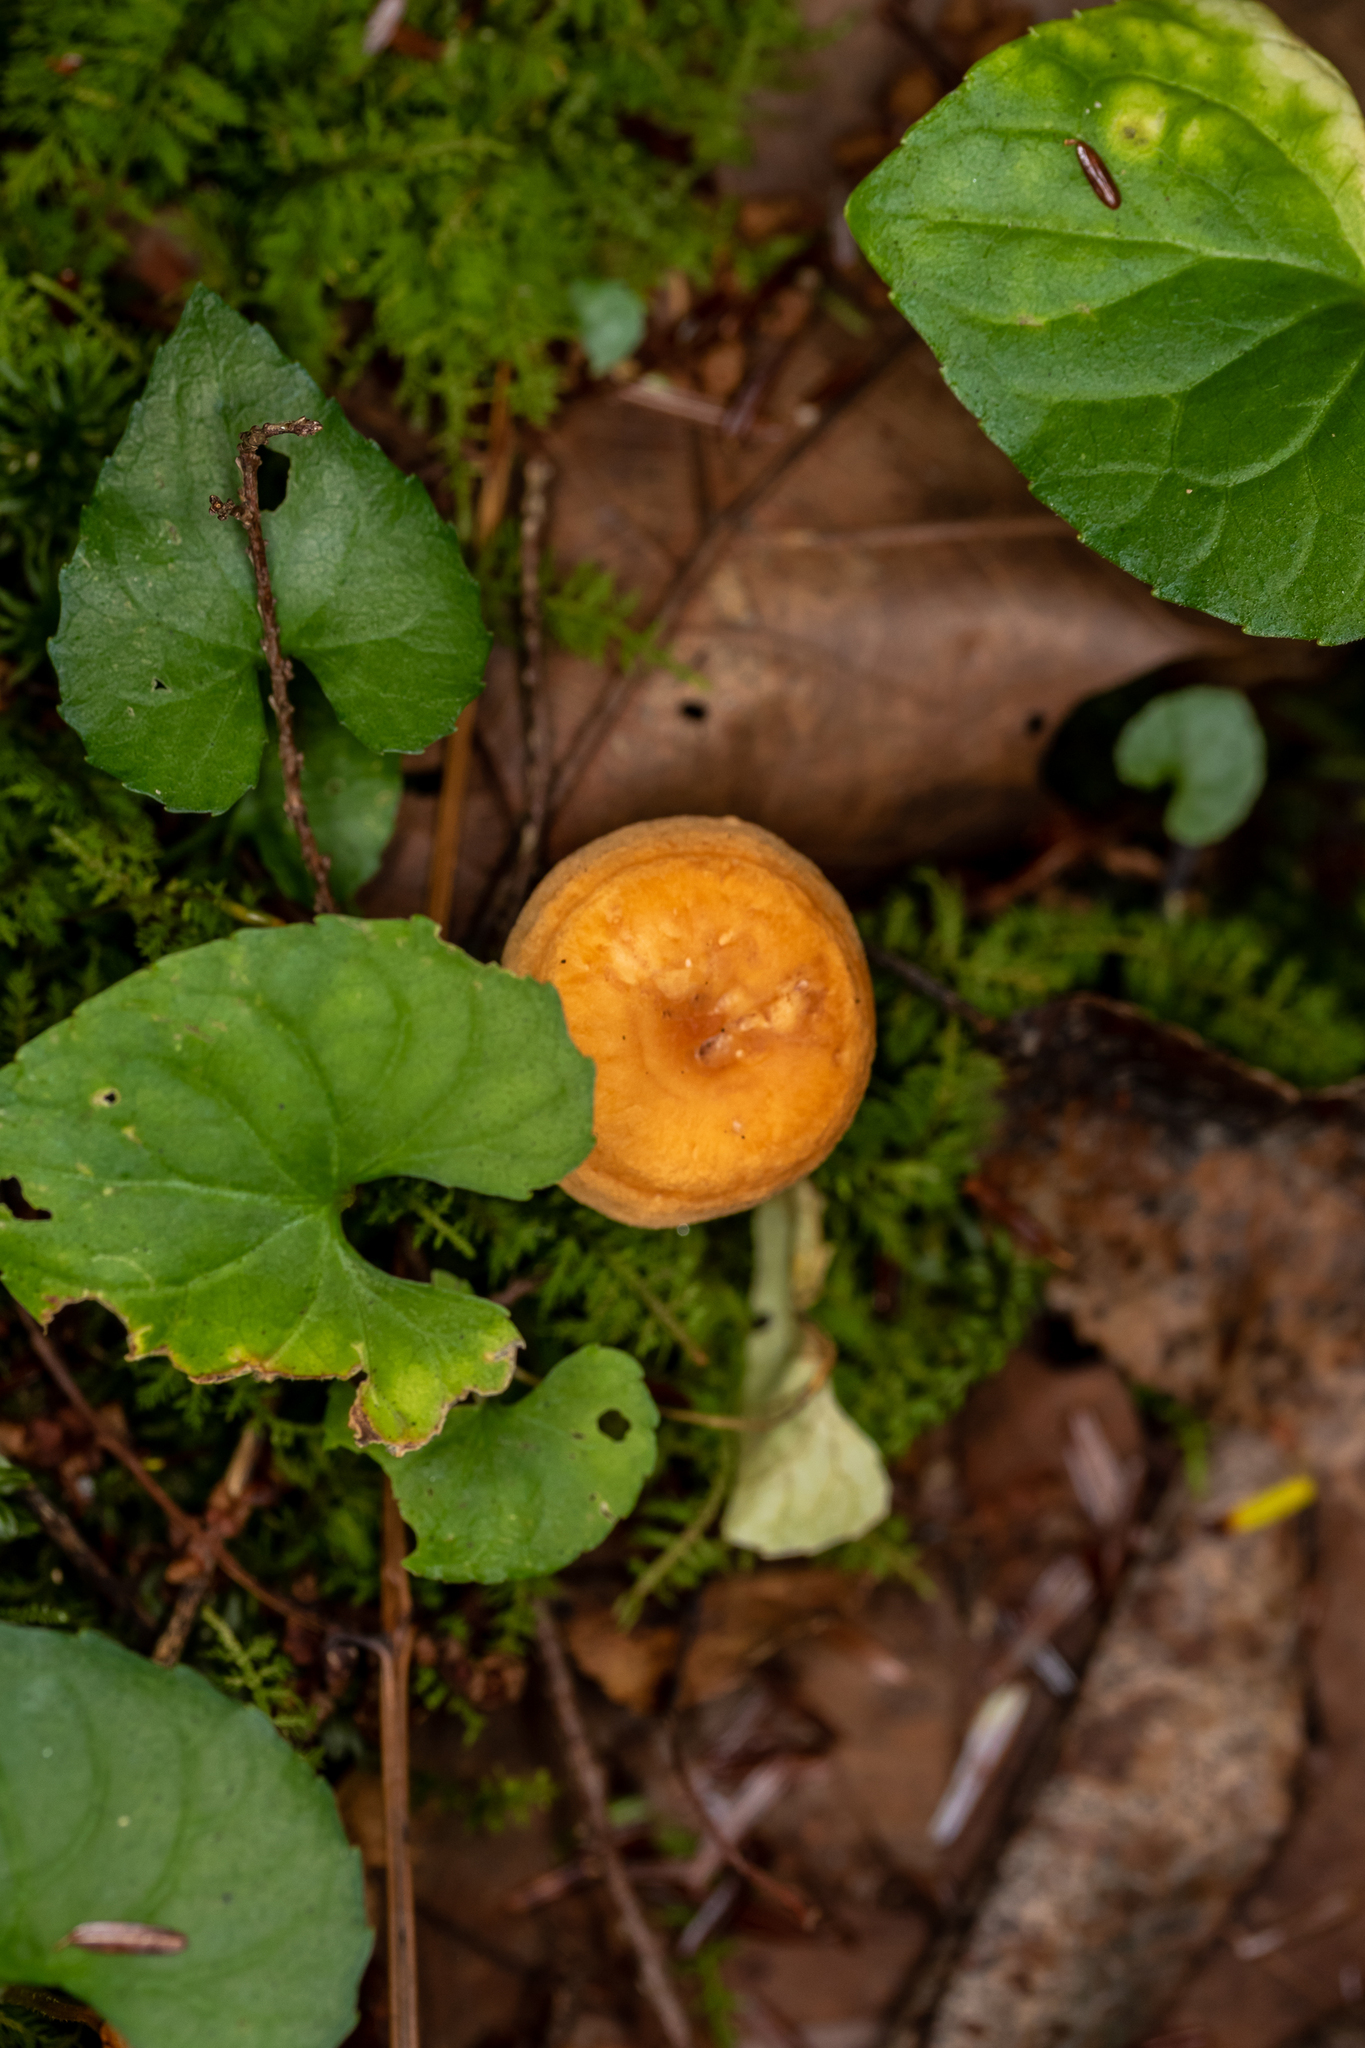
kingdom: Fungi
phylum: Basidiomycota
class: Agaricomycetes
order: Cantharellales
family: Hydnaceae
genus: Hydnum
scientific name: Hydnum umbilicatum
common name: Umbilicate hedgehog
